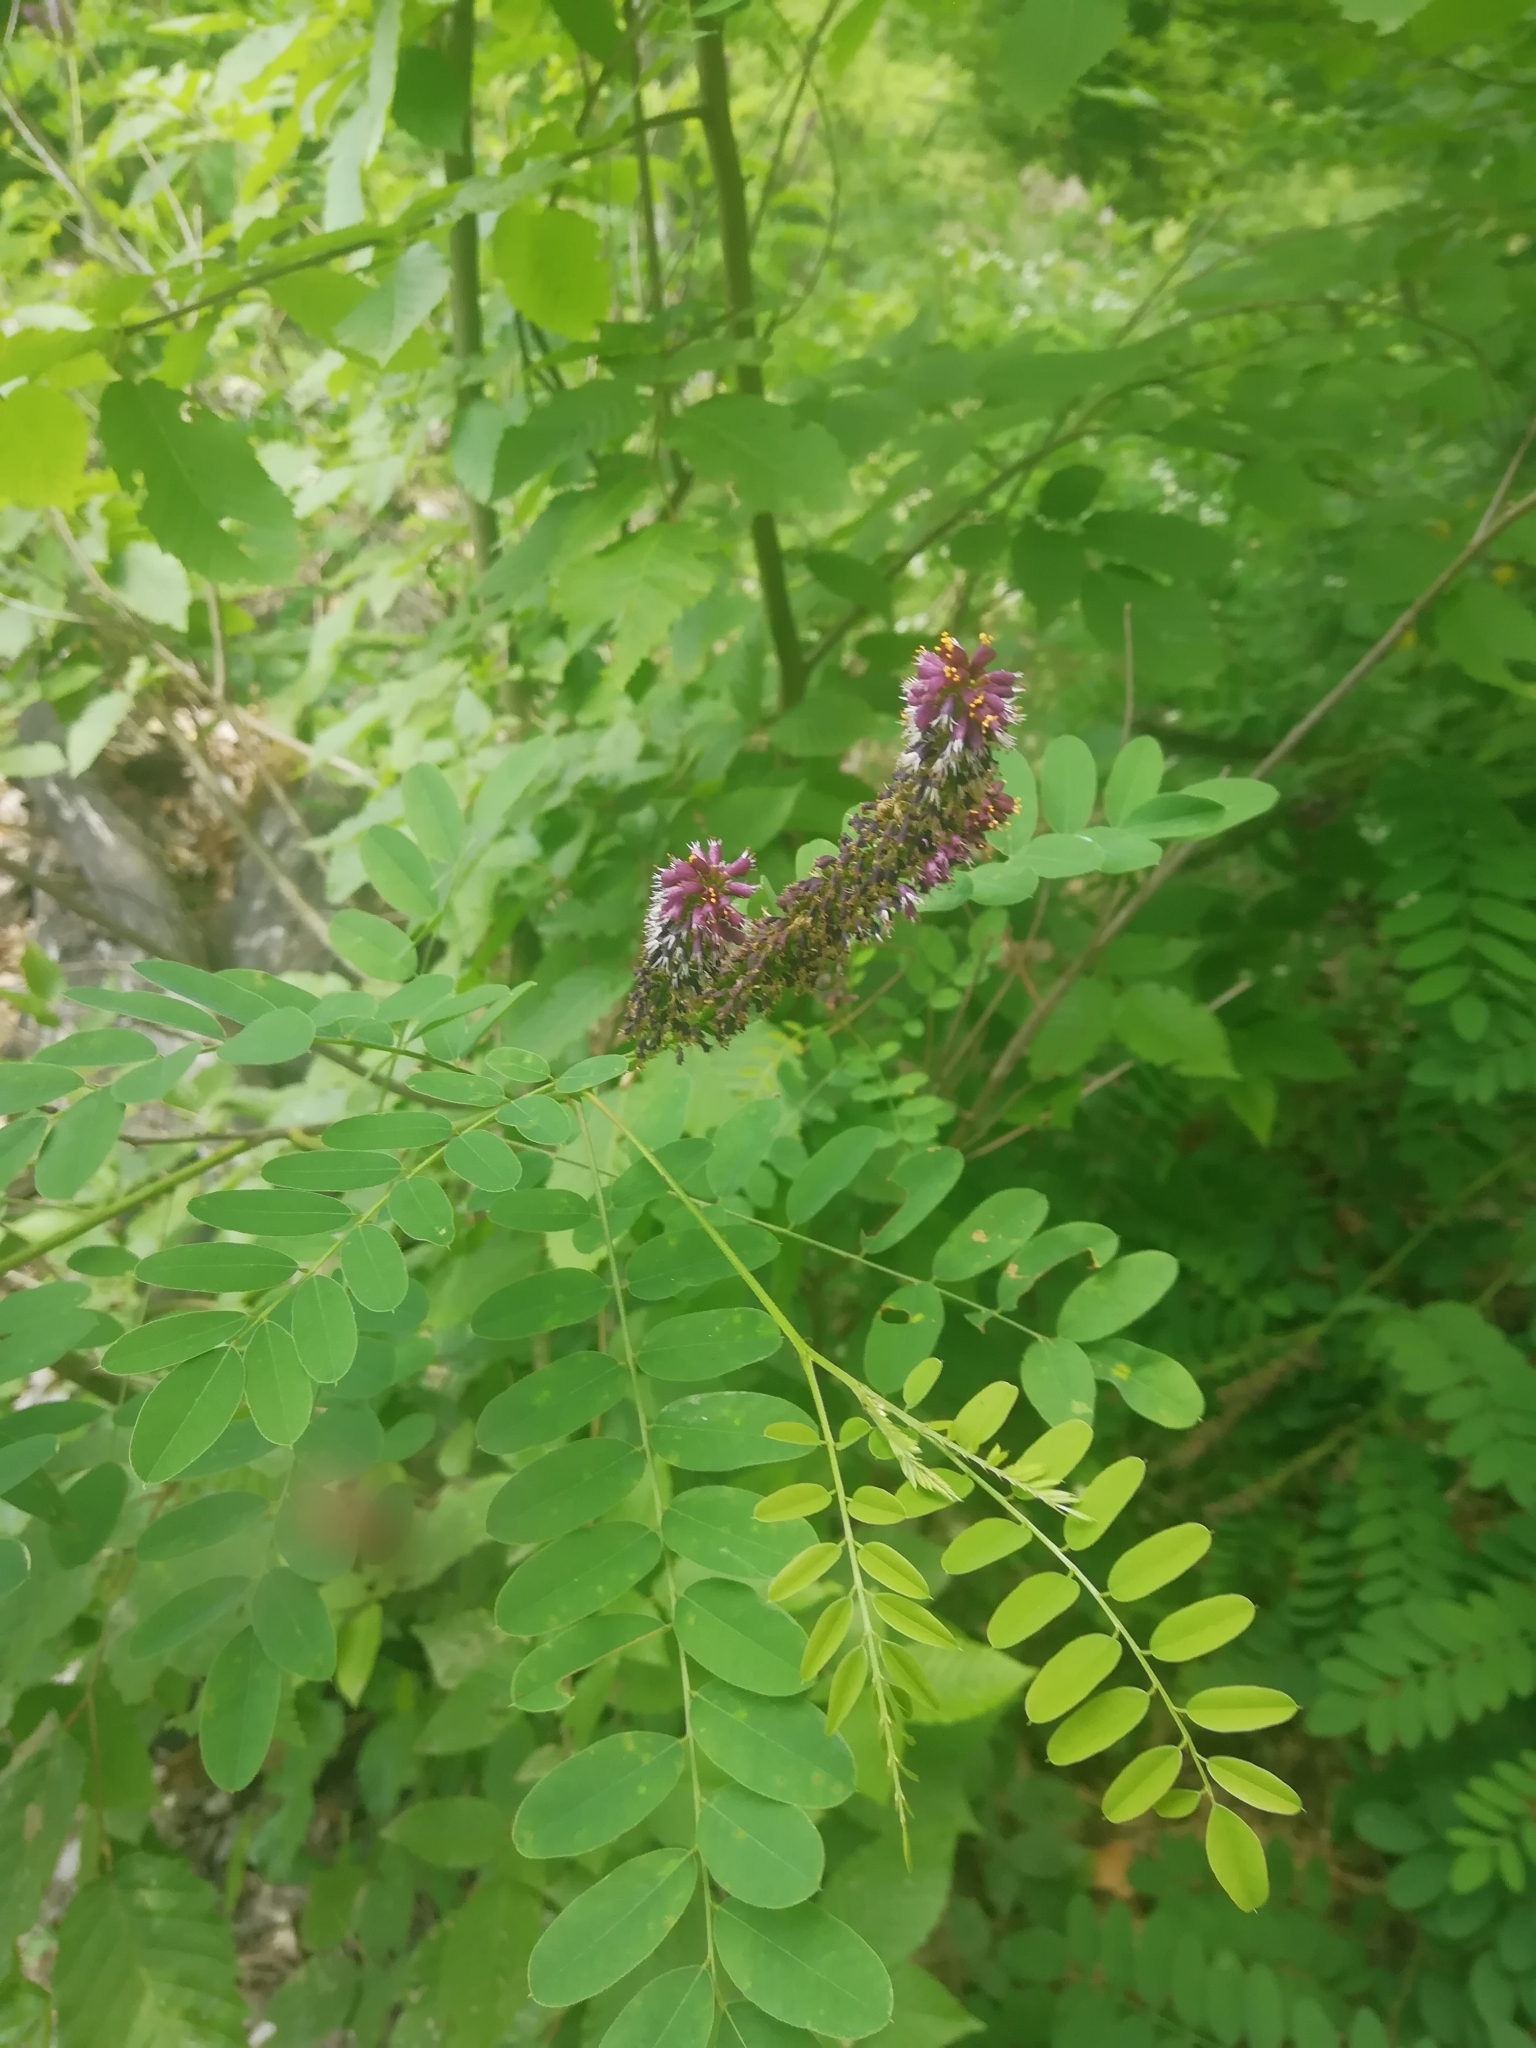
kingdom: Plantae
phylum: Tracheophyta
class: Magnoliopsida
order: Fabales
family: Fabaceae
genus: Amorpha
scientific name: Amorpha fruticosa
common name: False indigo
